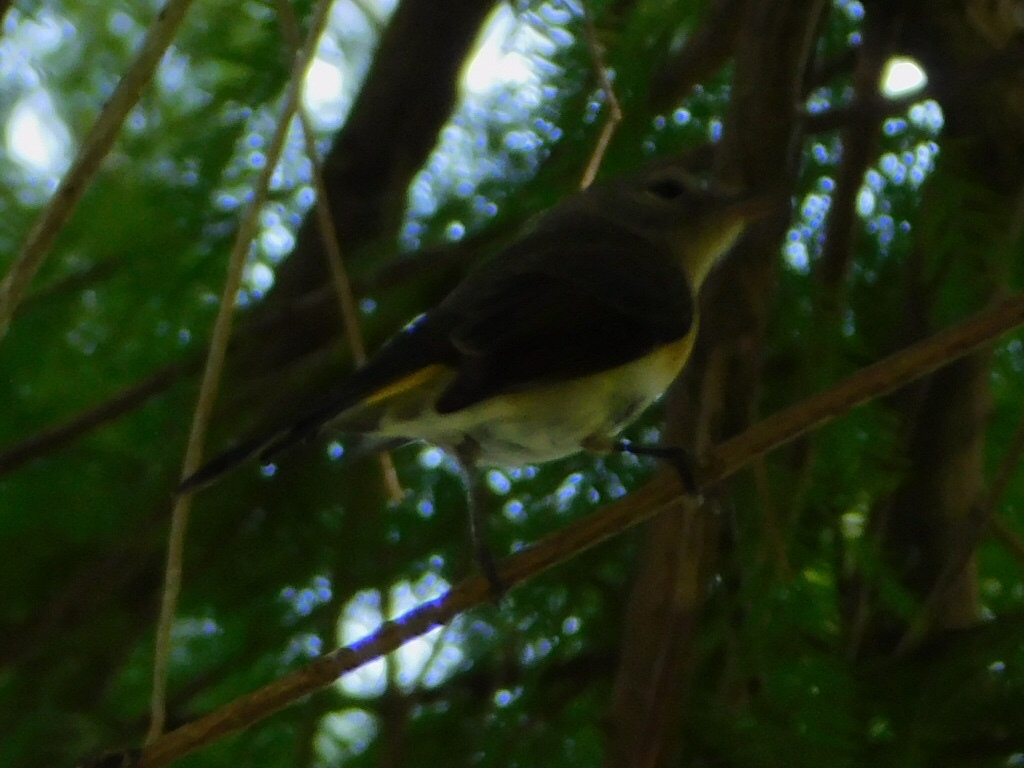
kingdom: Animalia
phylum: Chordata
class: Aves
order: Passeriformes
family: Parulidae
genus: Setophaga
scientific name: Setophaga ruticilla
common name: American redstart
